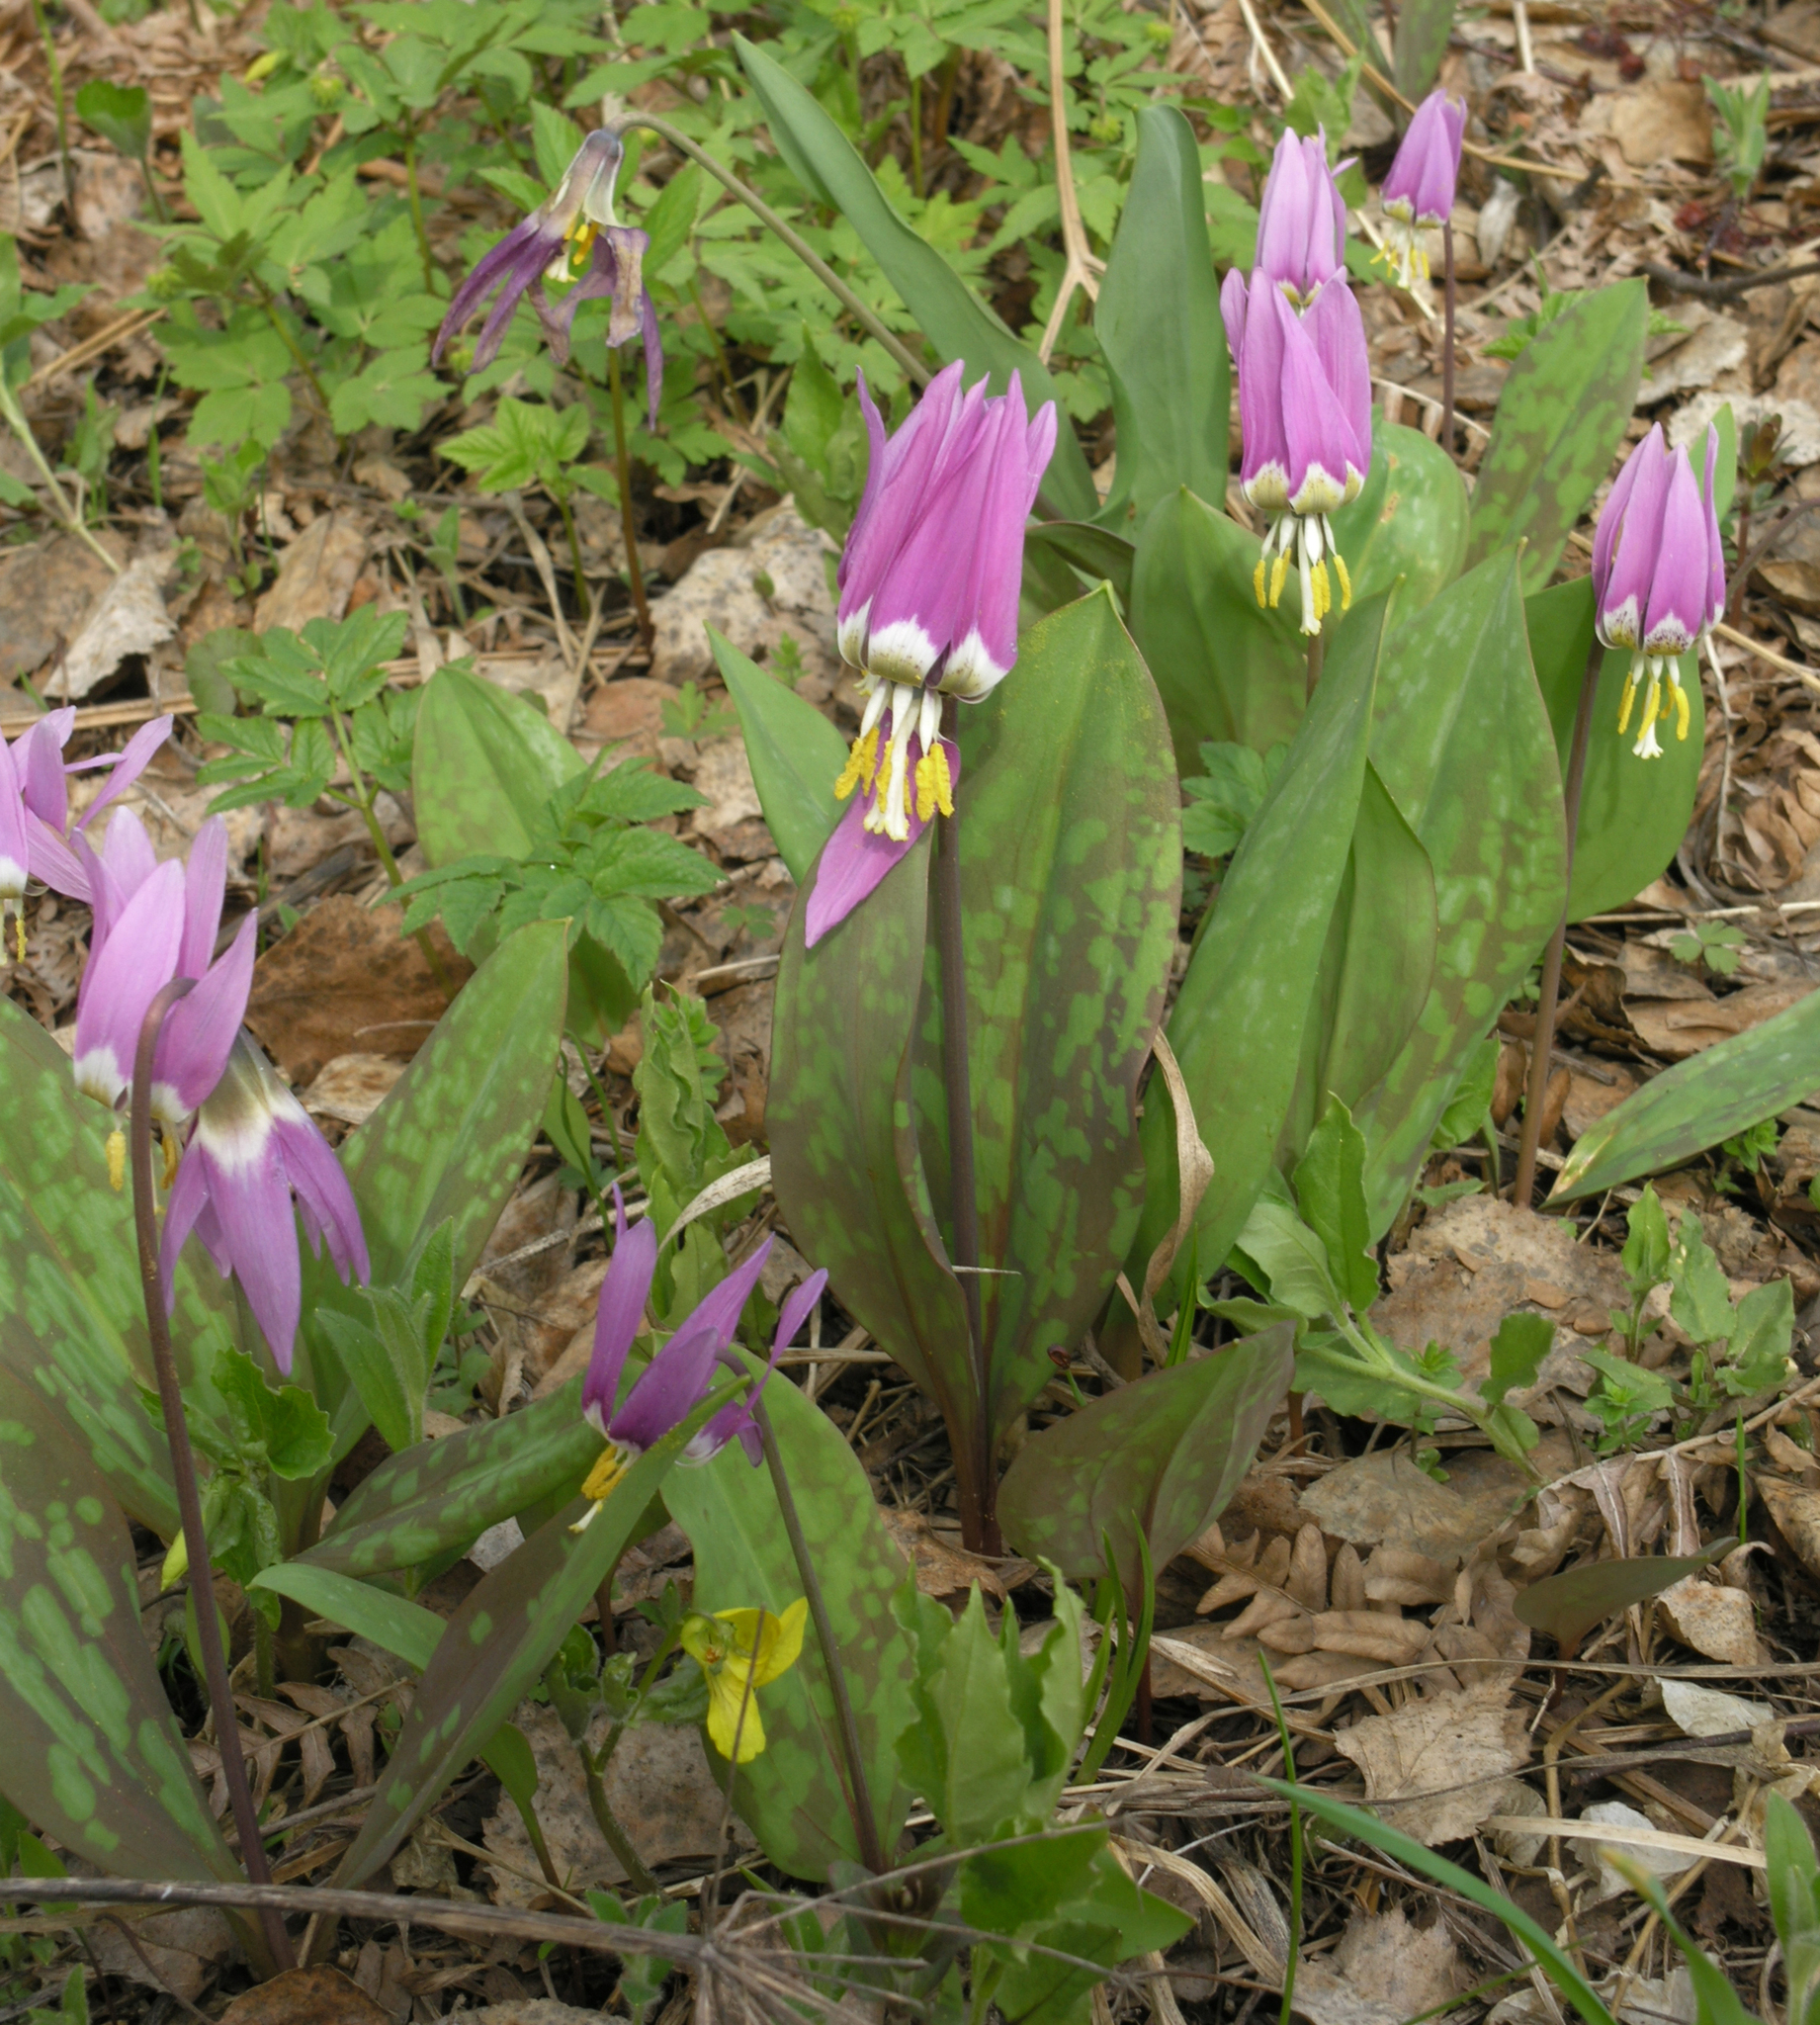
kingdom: Plantae
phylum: Tracheophyta
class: Liliopsida
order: Liliales
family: Liliaceae
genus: Erythronium
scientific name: Erythronium sibiricum
